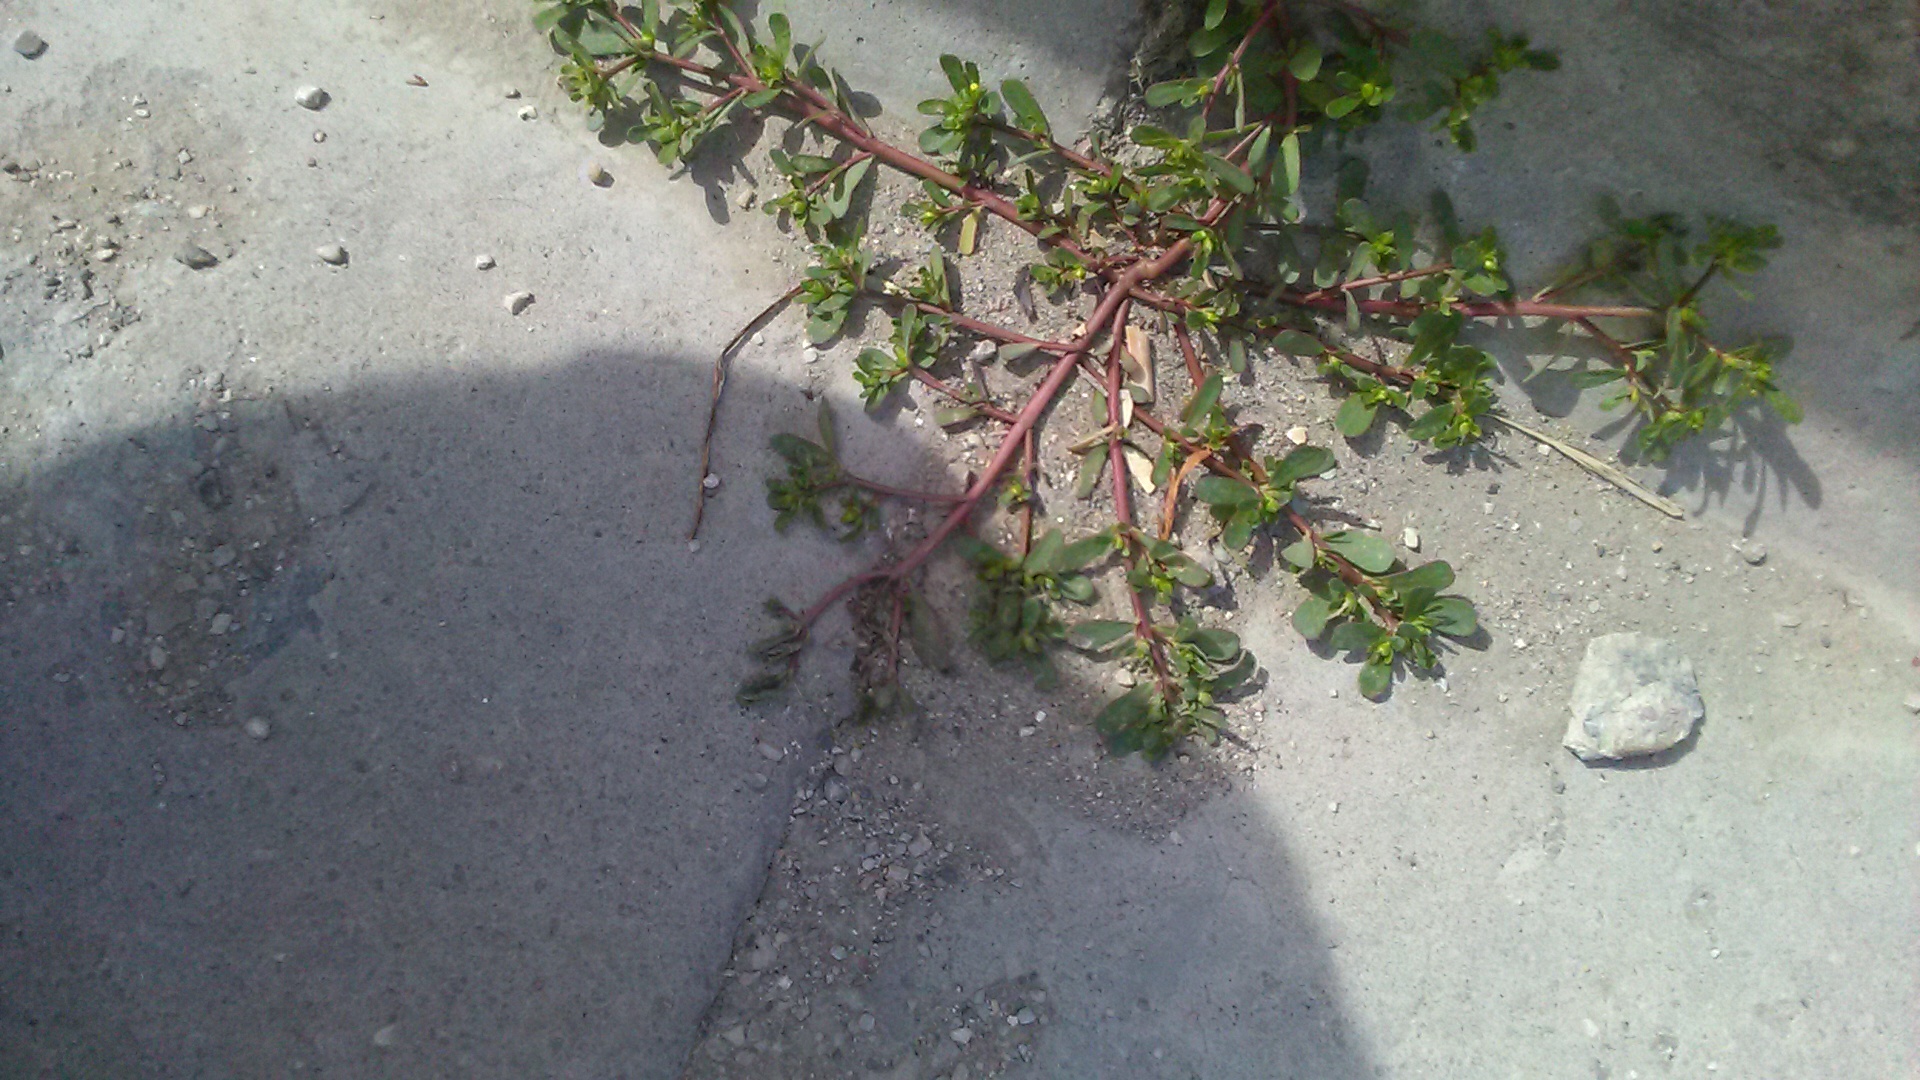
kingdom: Plantae
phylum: Tracheophyta
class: Magnoliopsida
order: Caryophyllales
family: Portulacaceae
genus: Portulaca
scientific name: Portulaca oleracea
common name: Common purslane
